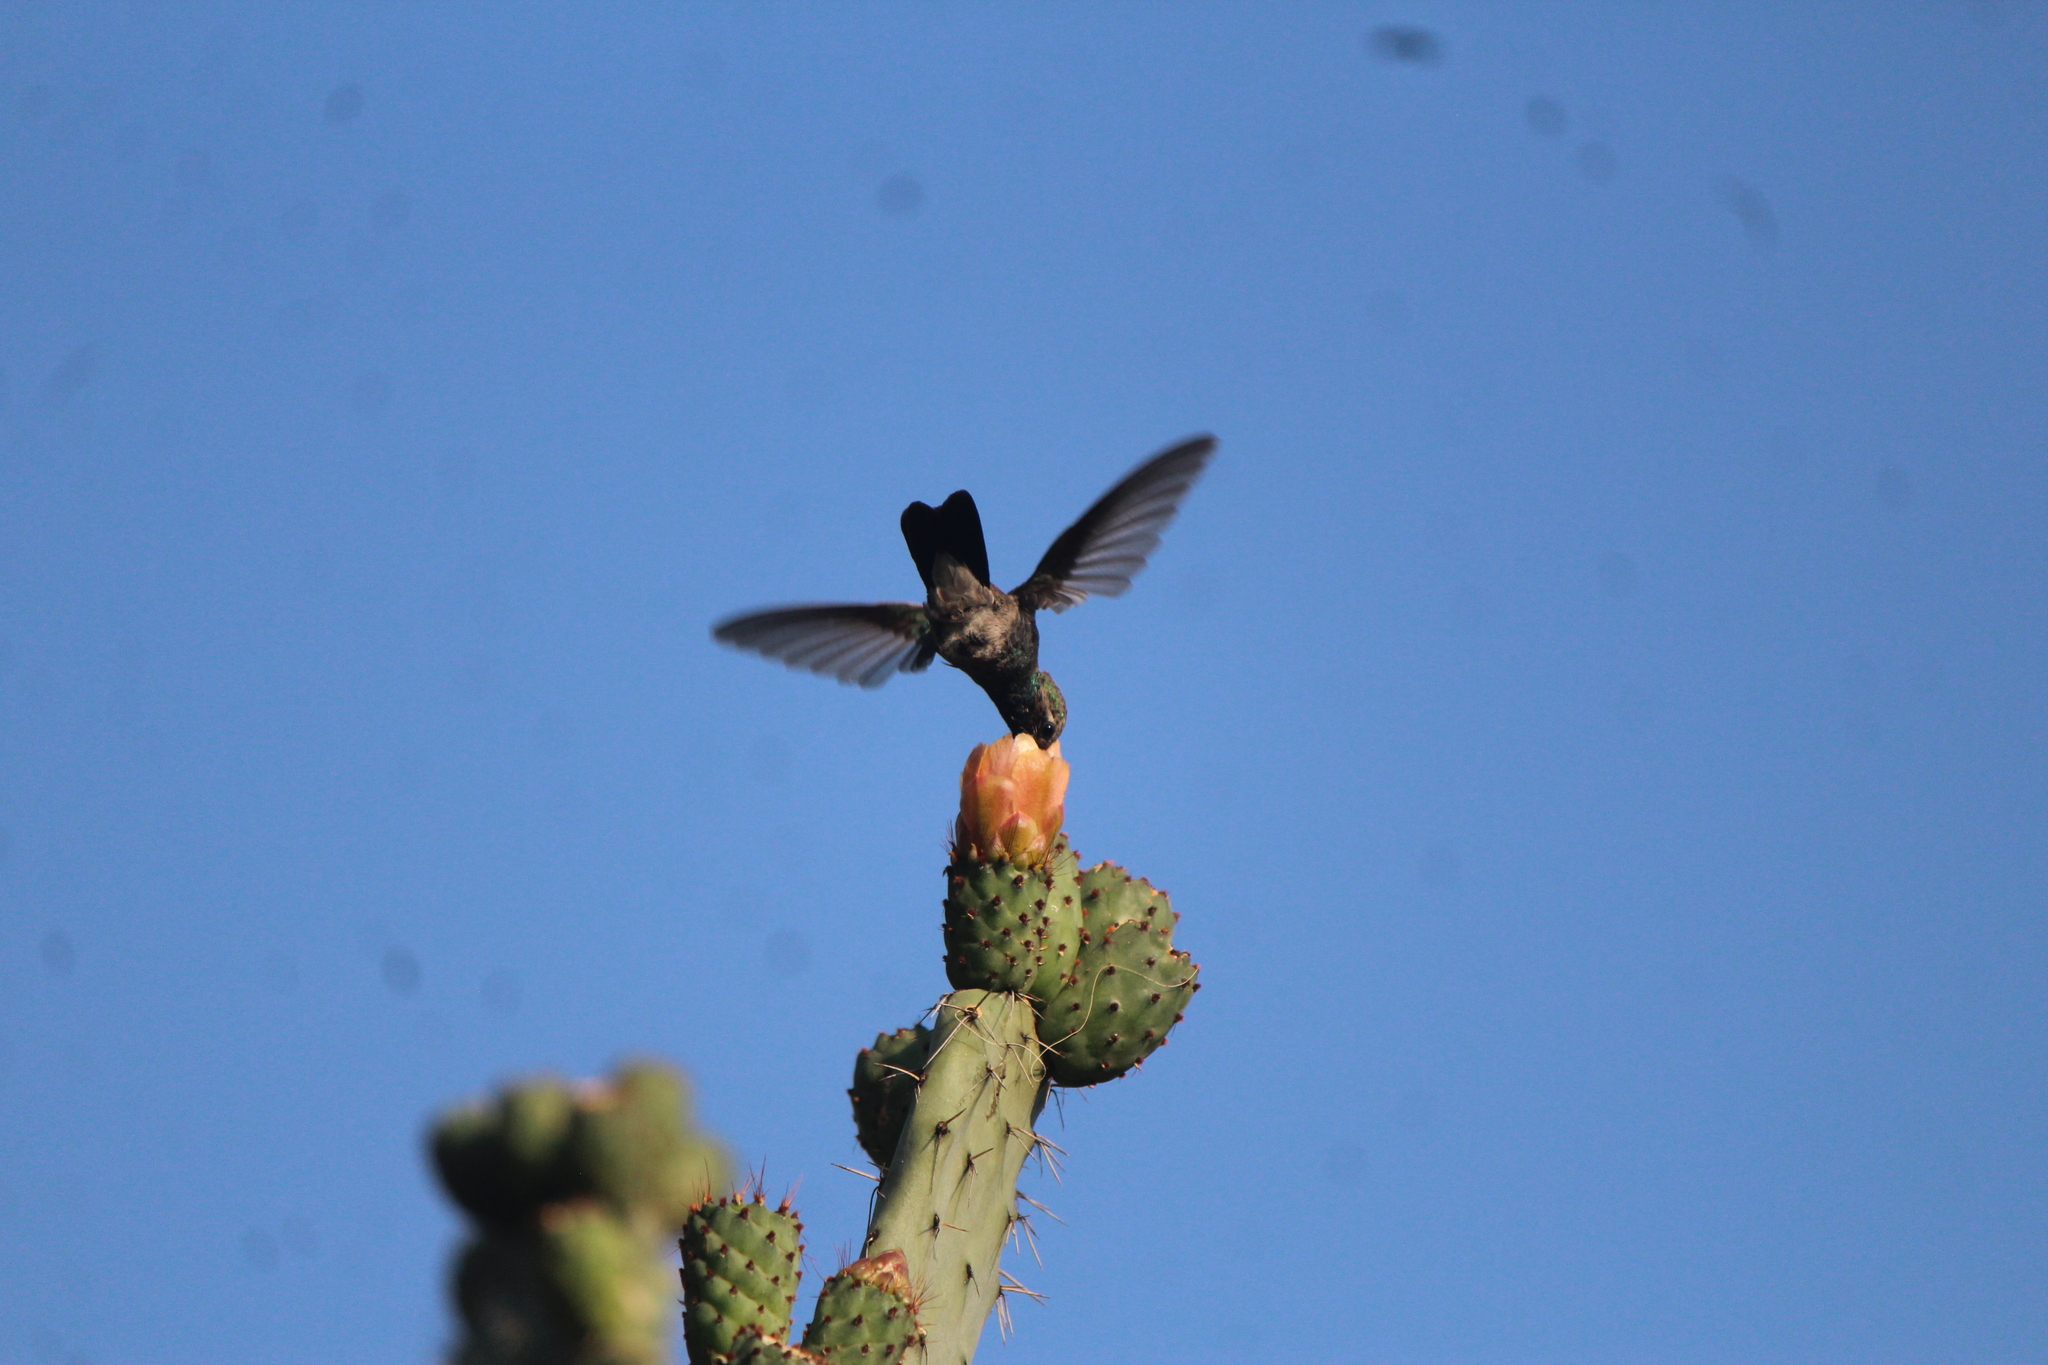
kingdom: Animalia
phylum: Chordata
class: Aves
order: Apodiformes
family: Trochilidae
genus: Cynanthus
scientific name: Cynanthus latirostris
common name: Broad-billed hummingbird
